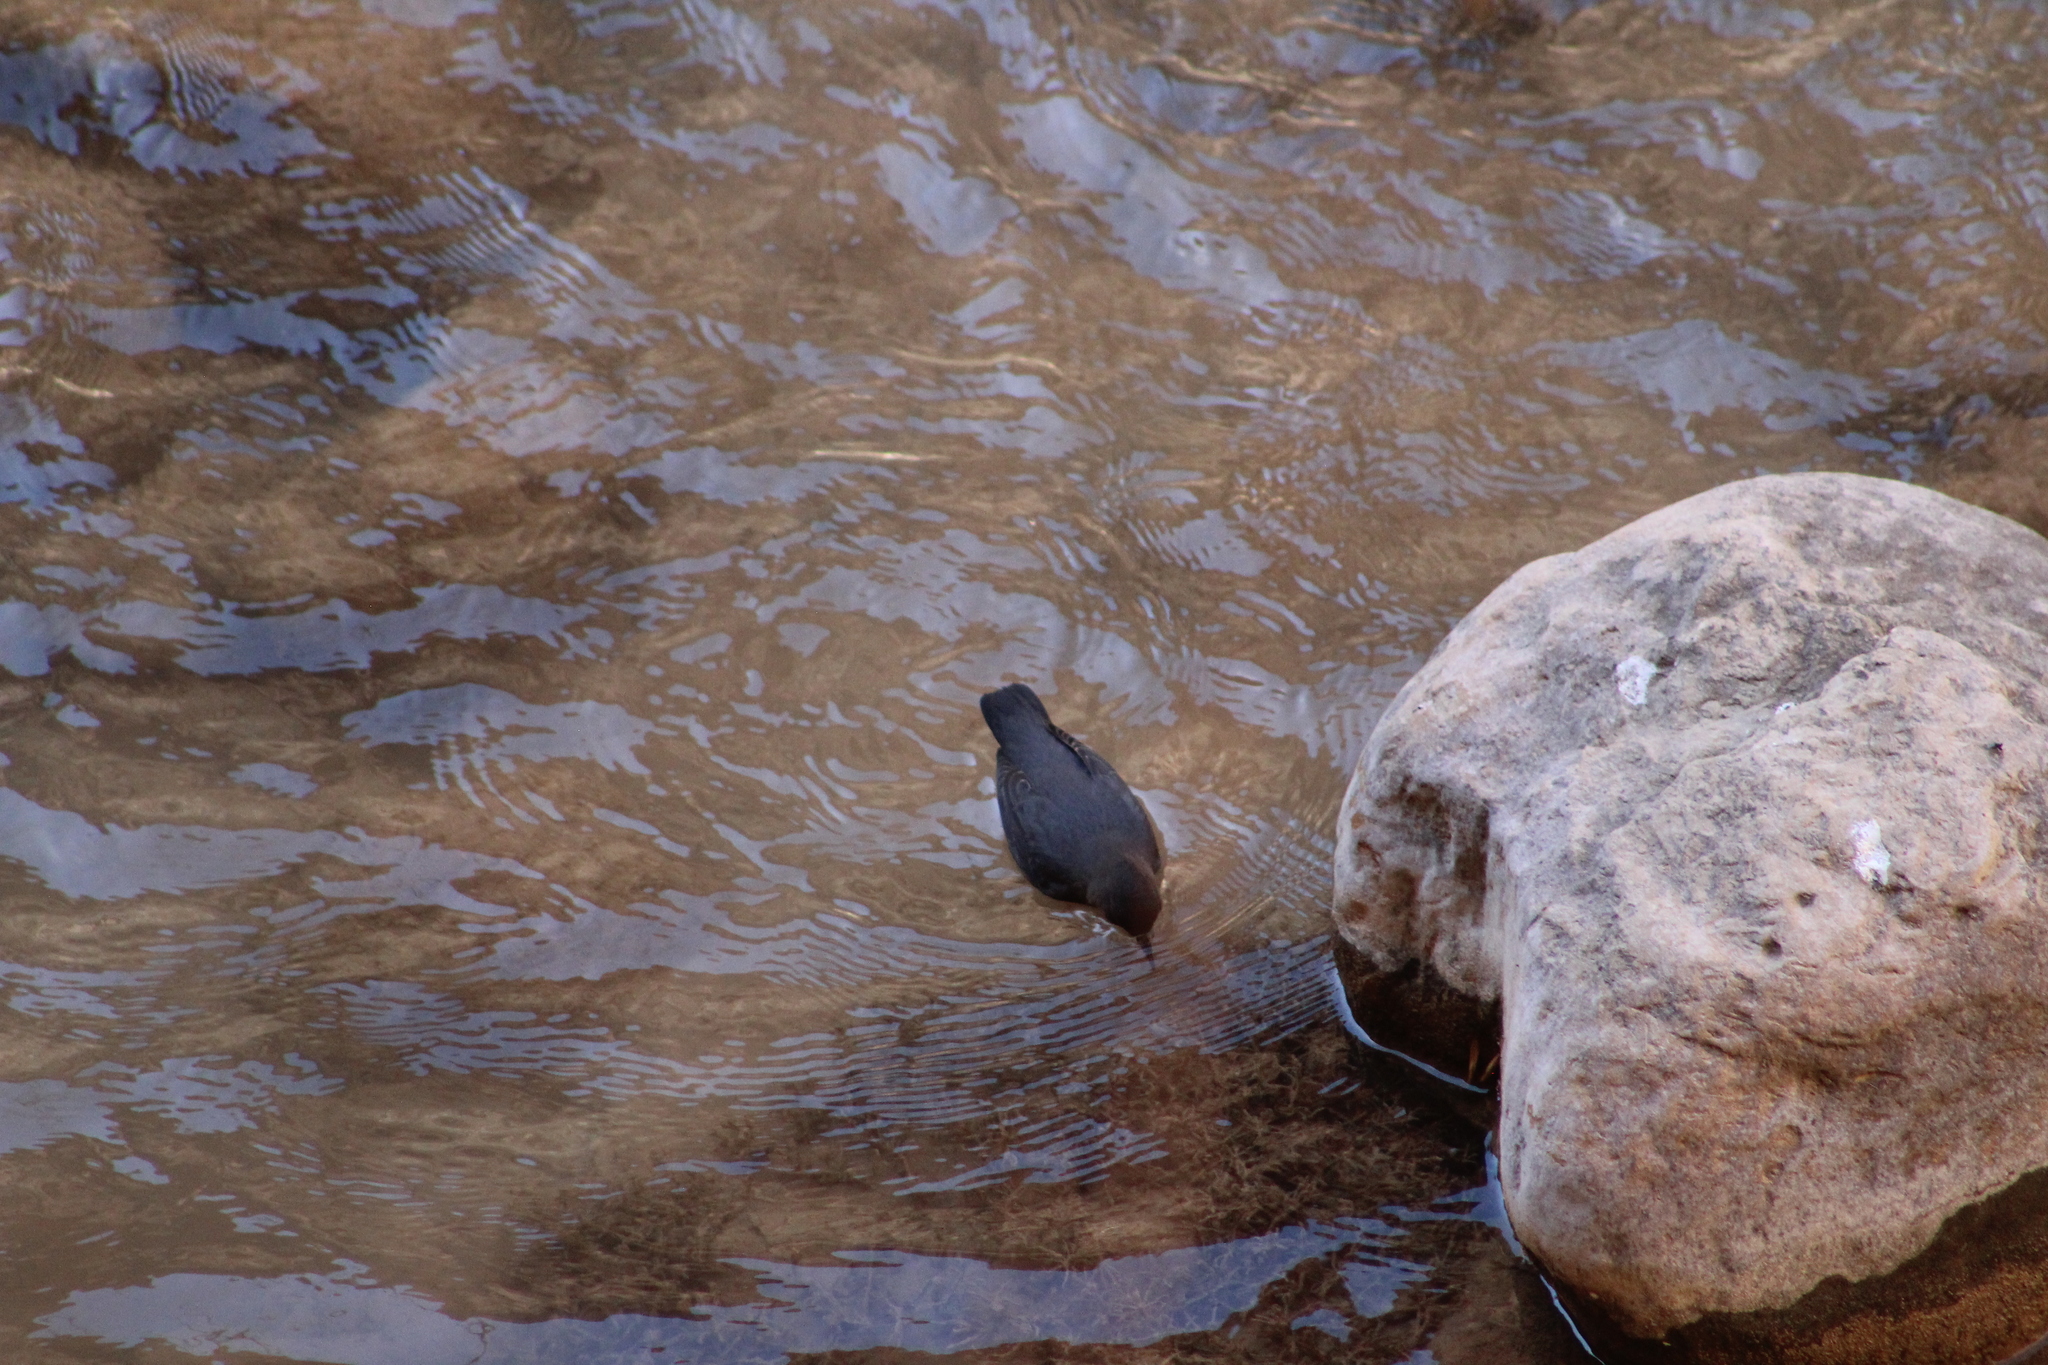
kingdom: Animalia
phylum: Chordata
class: Aves
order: Passeriformes
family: Cinclidae
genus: Cinclus
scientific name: Cinclus mexicanus
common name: American dipper
